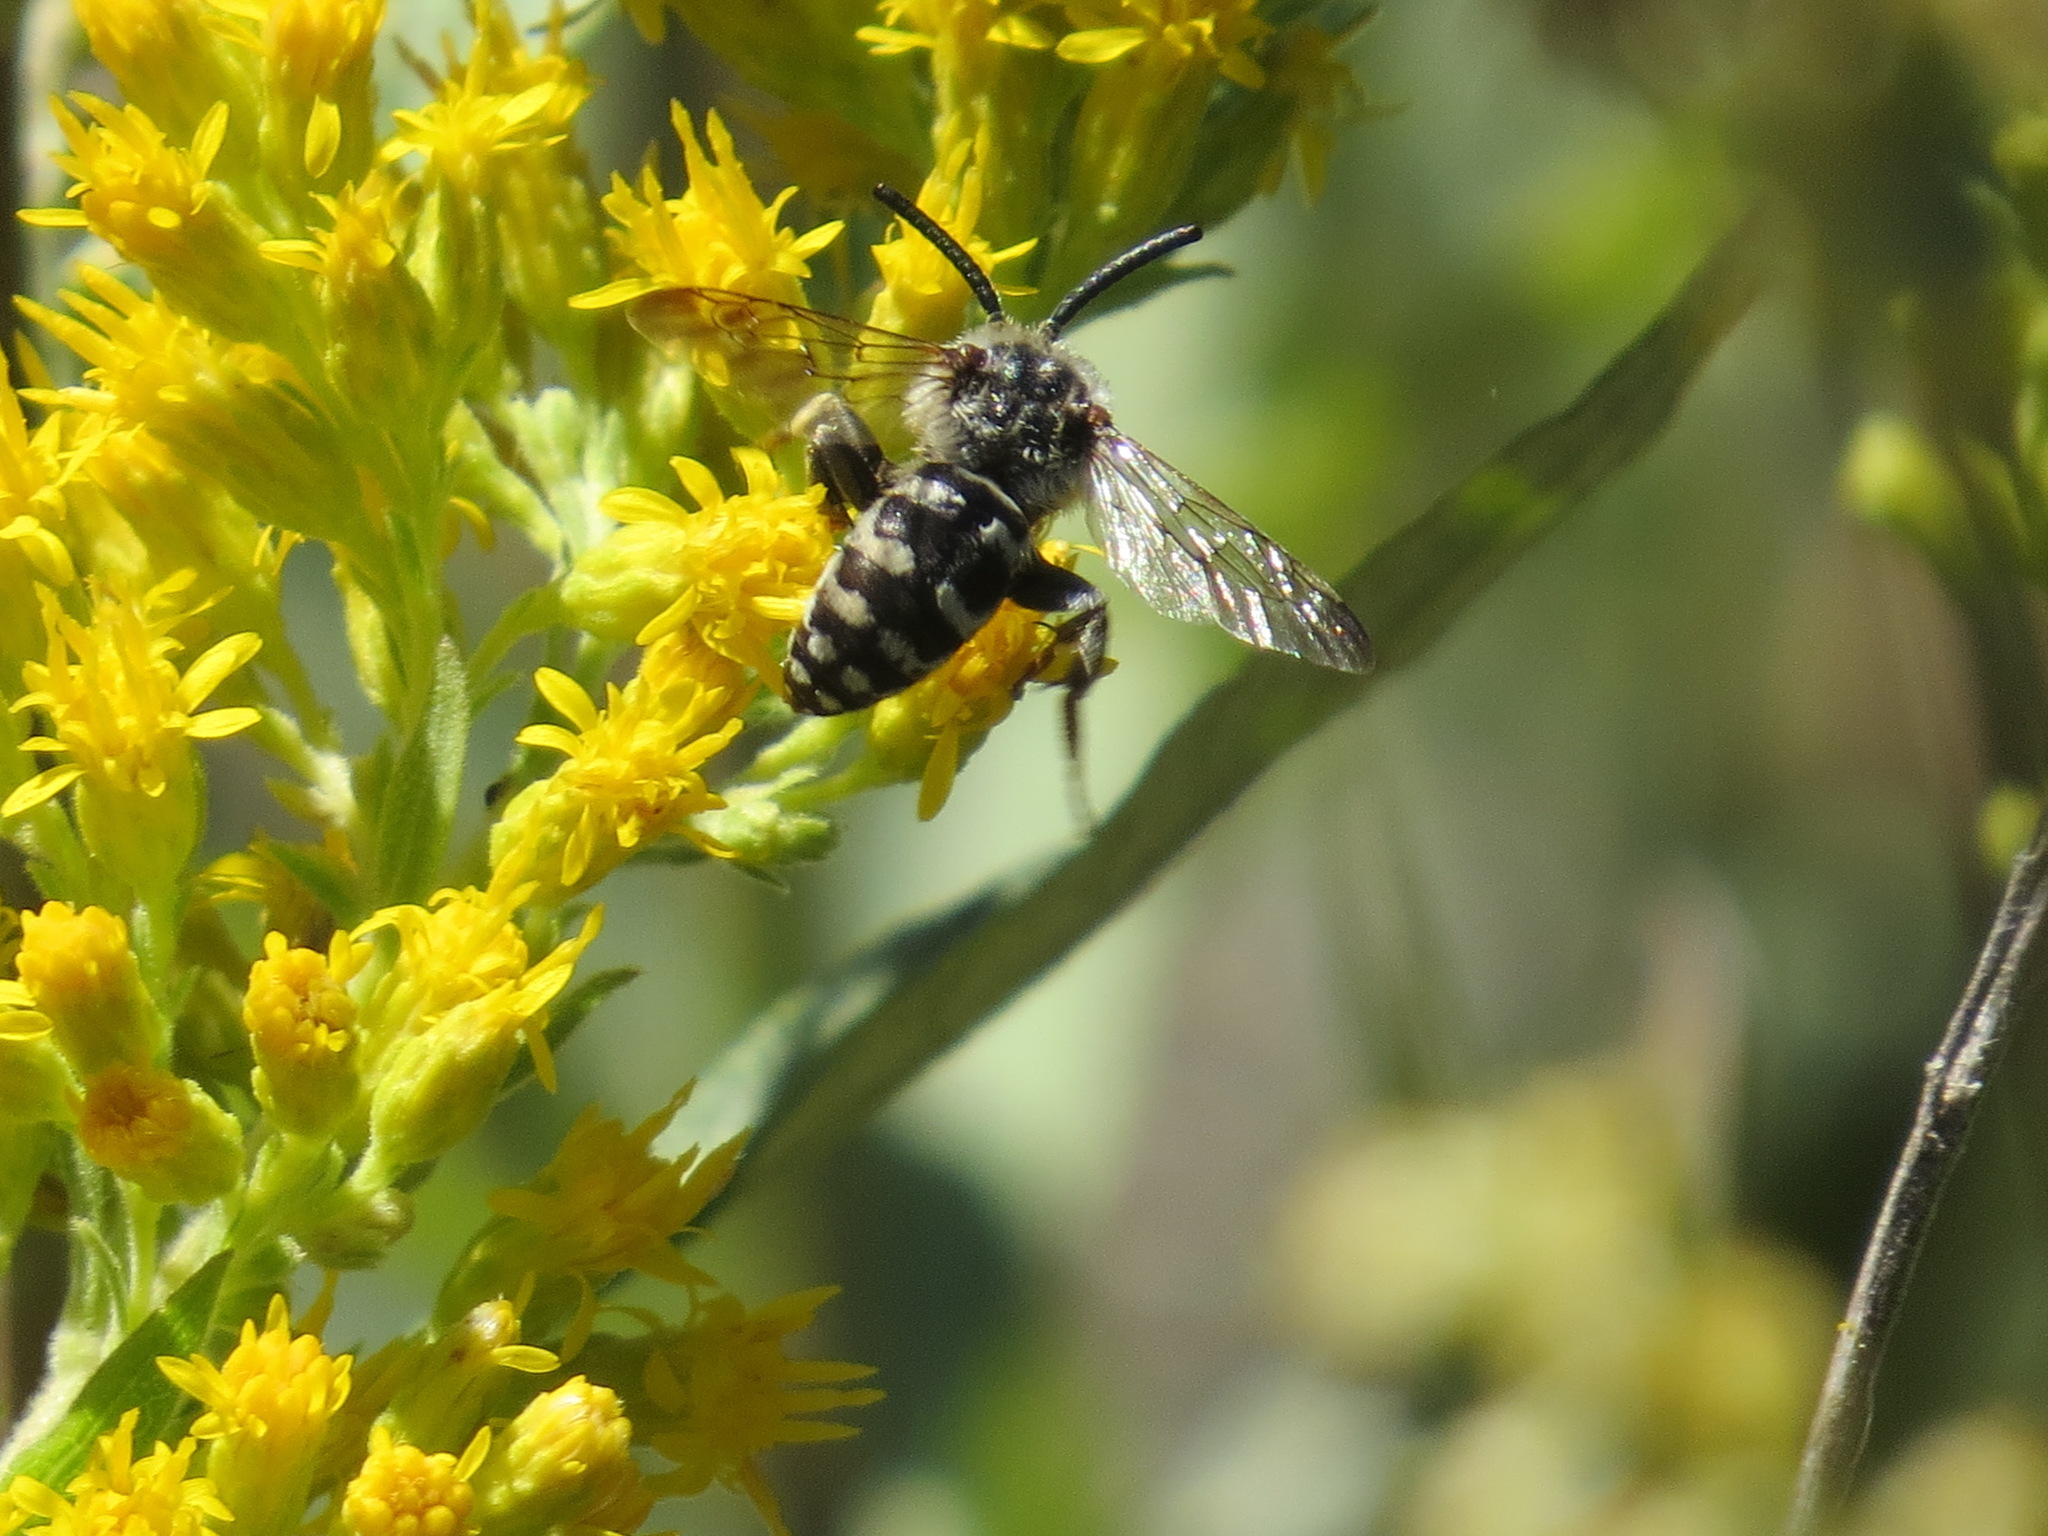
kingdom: Animalia
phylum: Arthropoda
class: Insecta
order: Hymenoptera
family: Apidae
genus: Brachymelecta
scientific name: Brachymelecta californica
